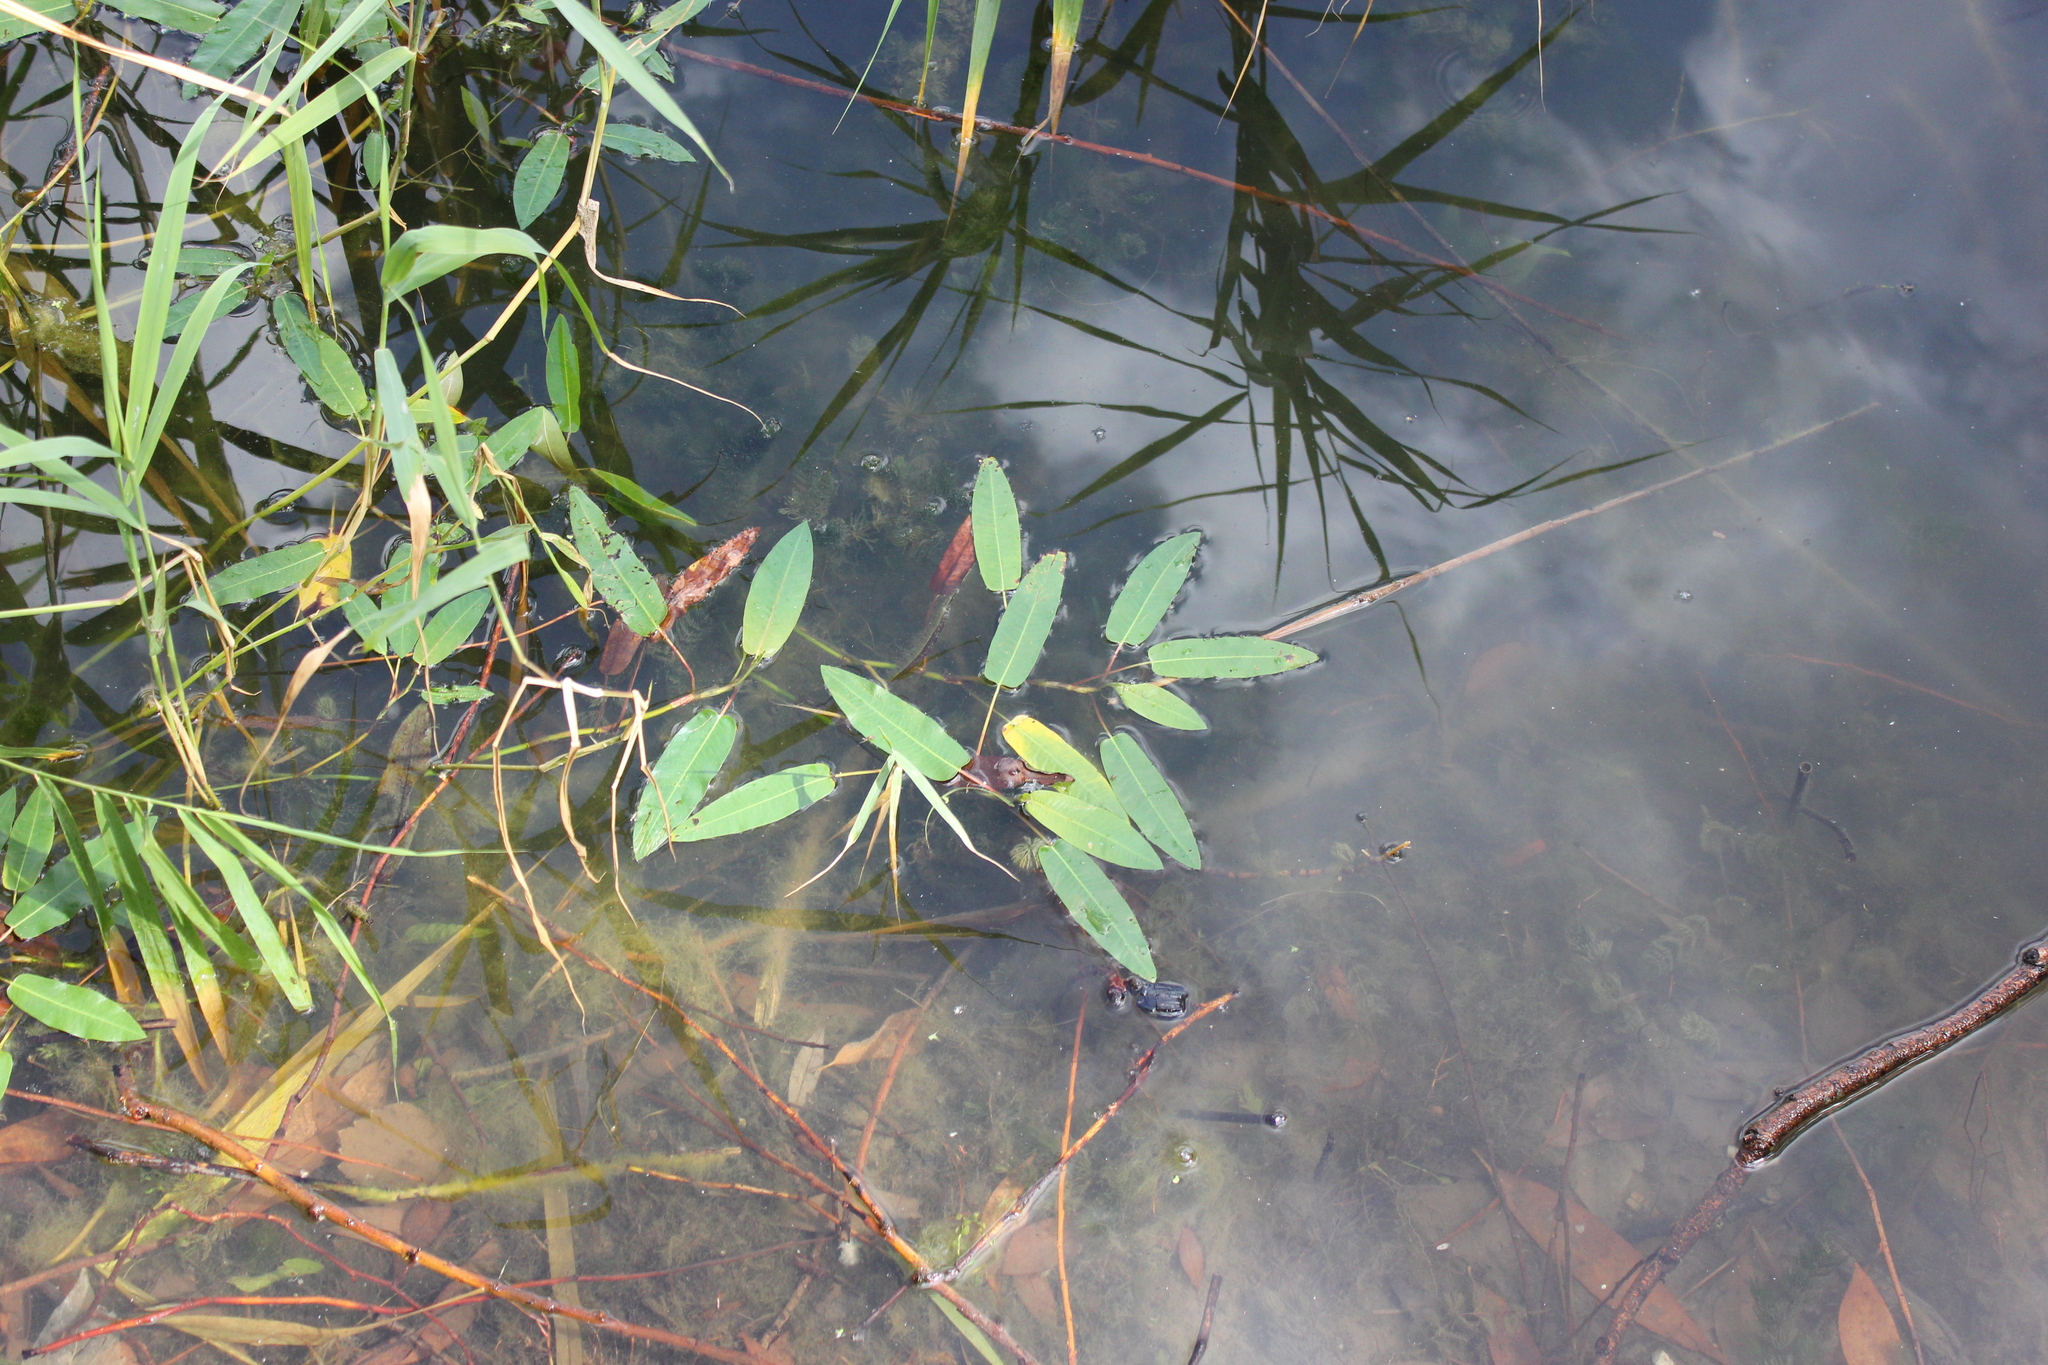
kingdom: Plantae
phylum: Tracheophyta
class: Magnoliopsida
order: Caryophyllales
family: Polygonaceae
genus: Persicaria
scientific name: Persicaria amphibia
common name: Amphibious bistort
